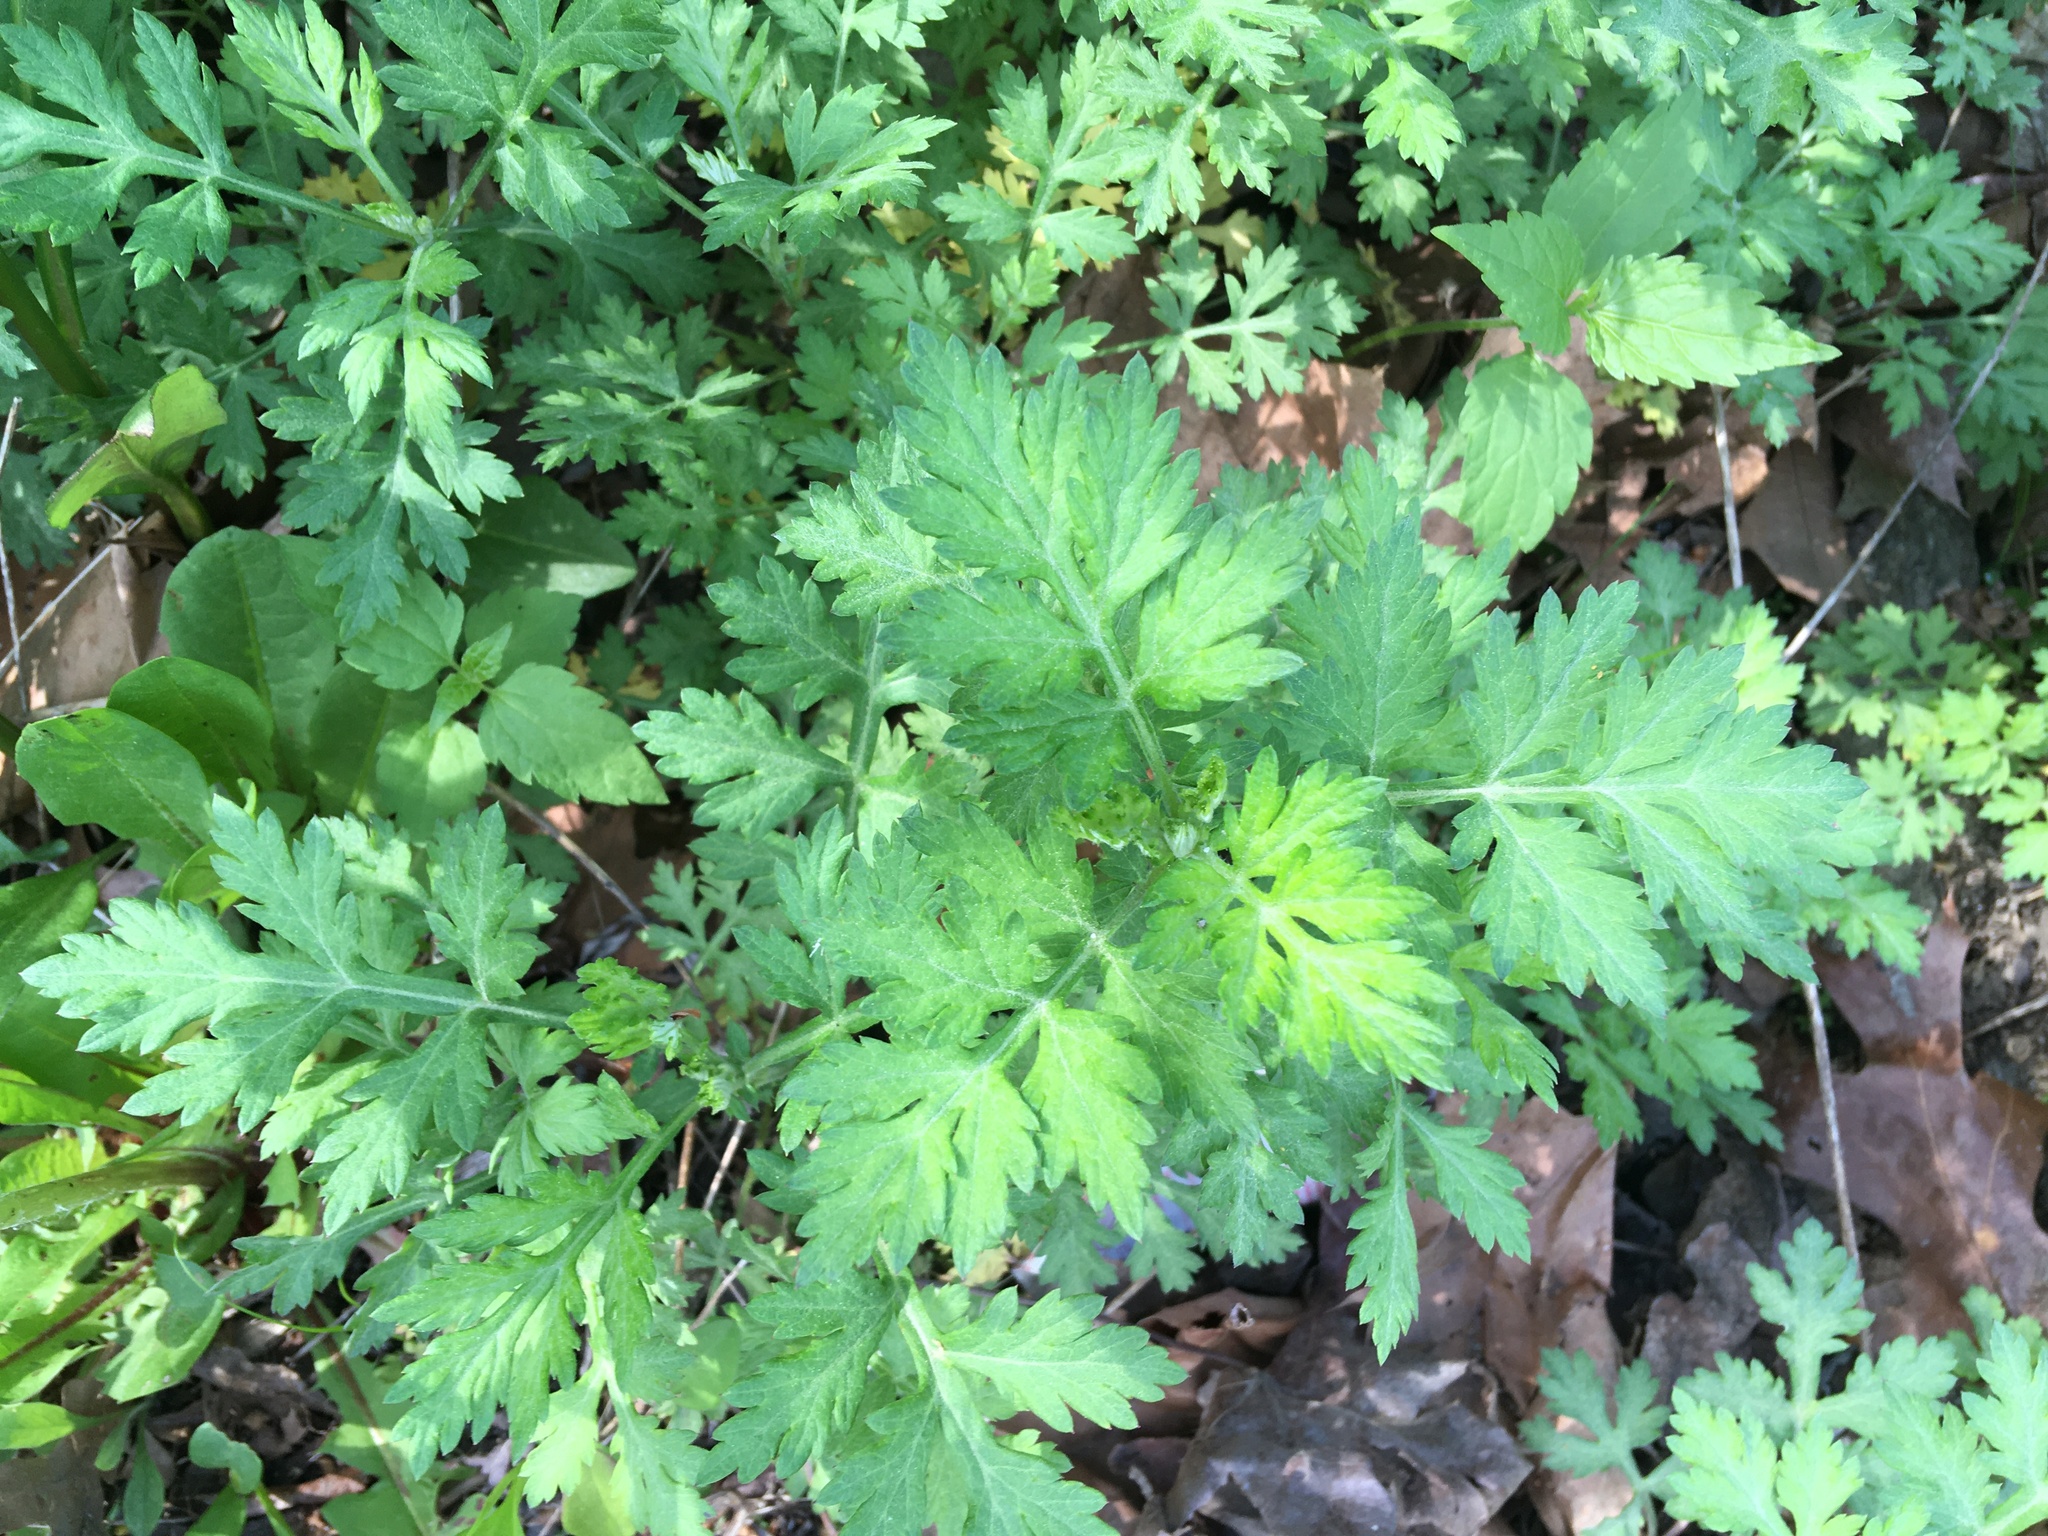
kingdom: Plantae
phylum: Tracheophyta
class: Magnoliopsida
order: Asterales
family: Asteraceae
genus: Artemisia
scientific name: Artemisia vulgaris
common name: Mugwort
